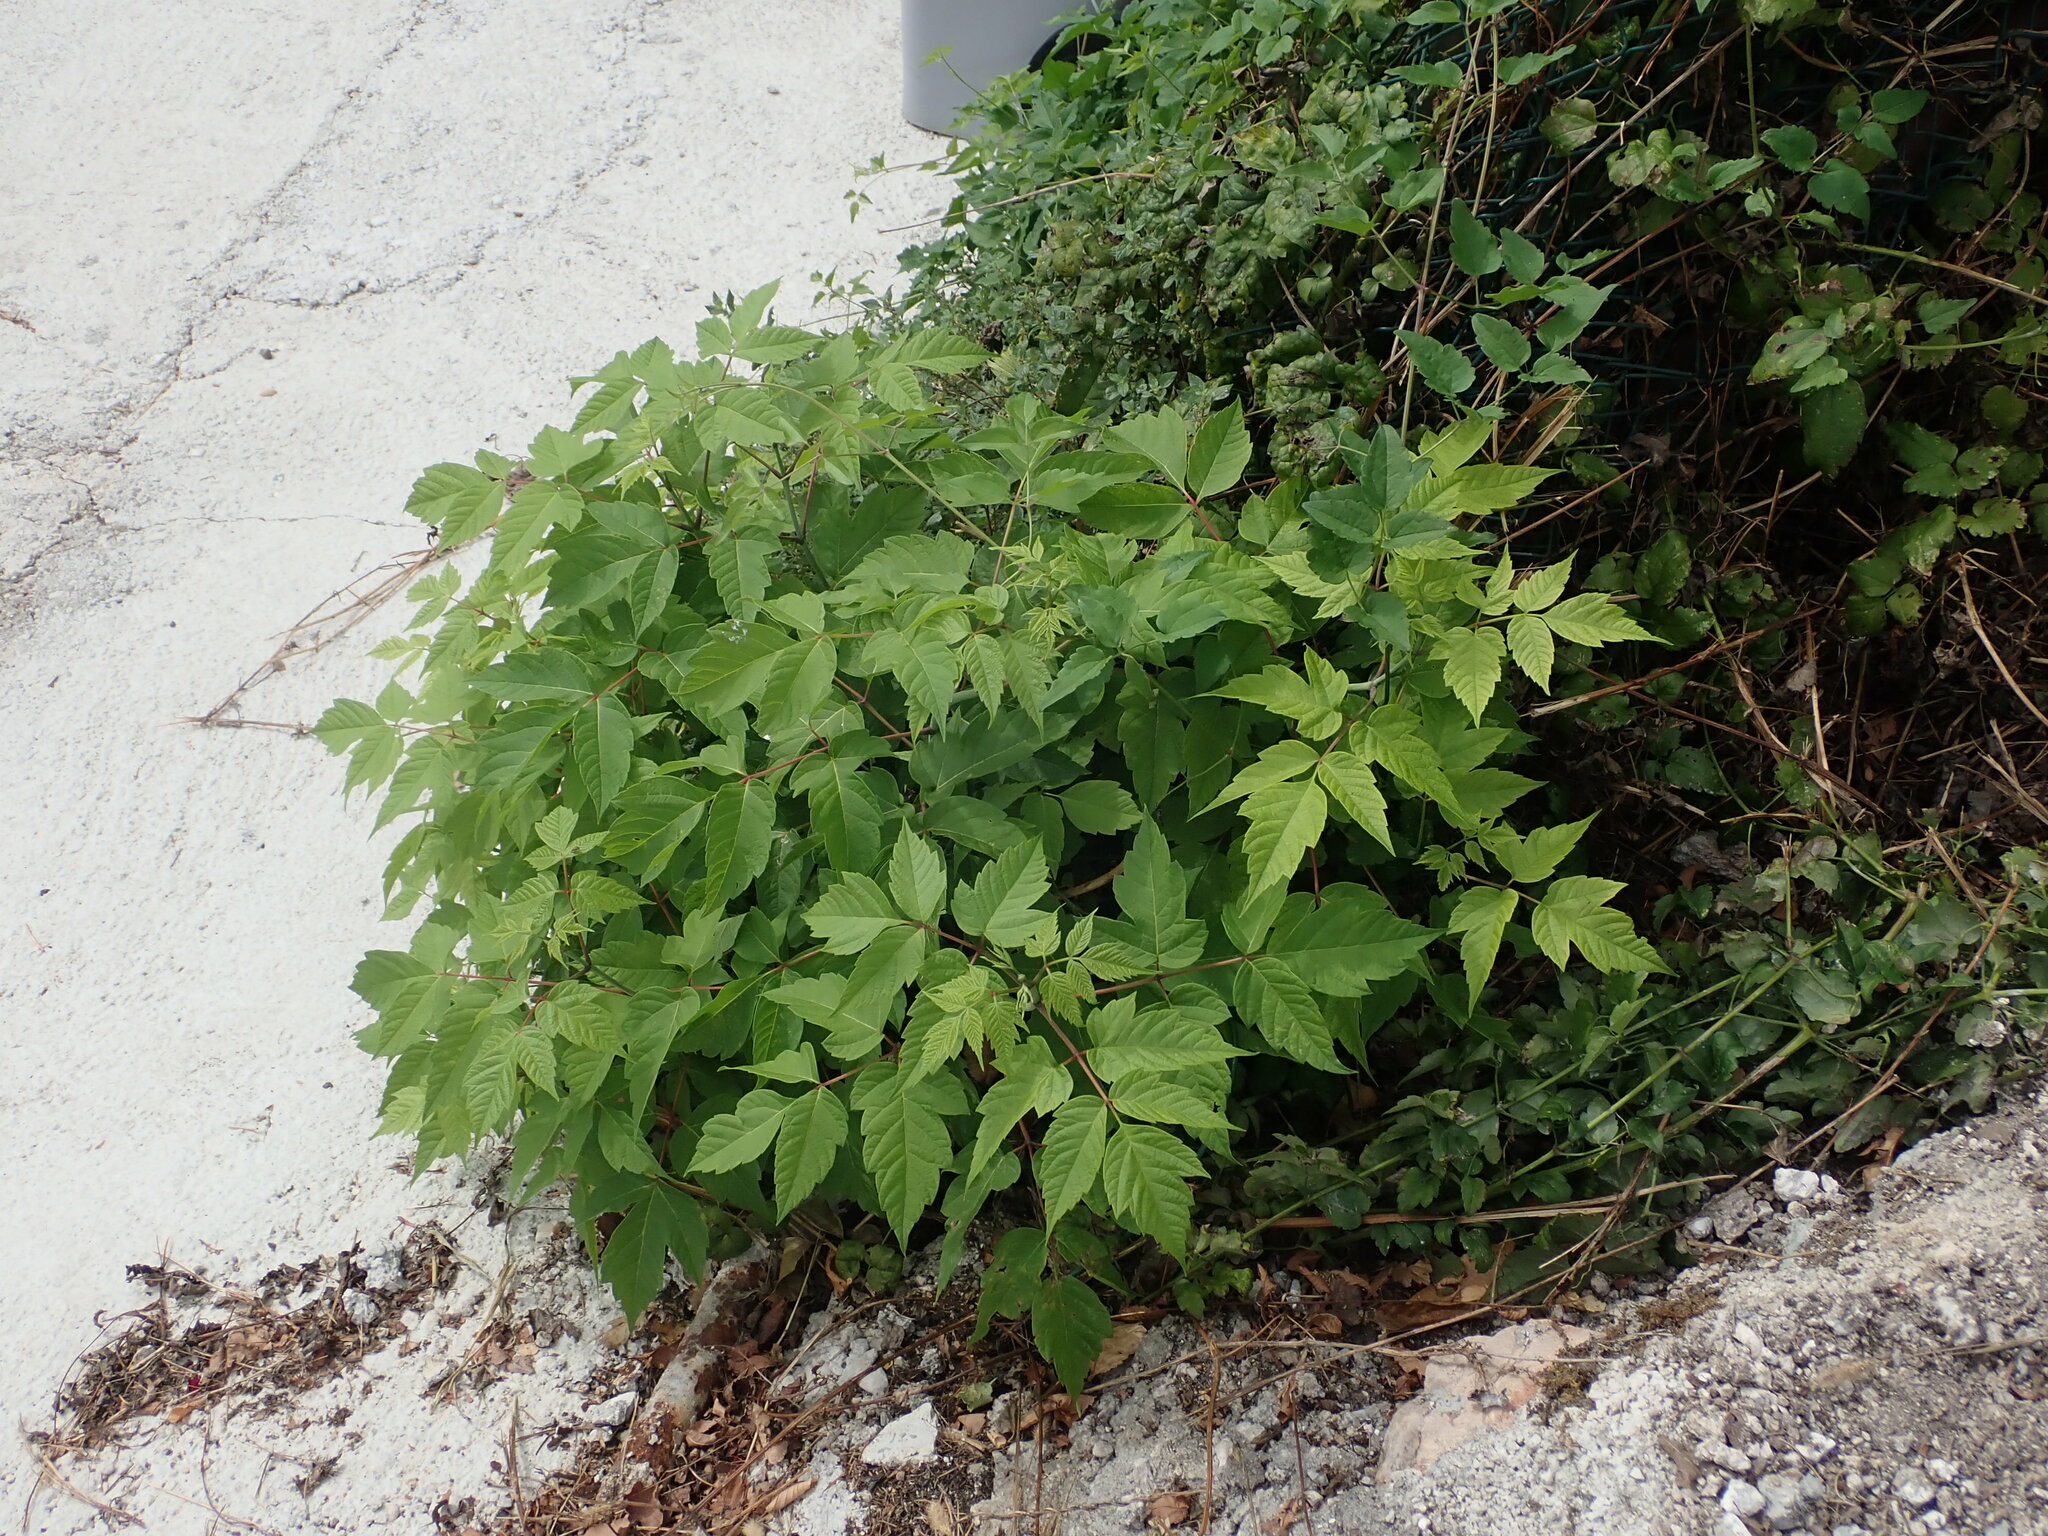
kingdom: Plantae
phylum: Tracheophyta
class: Magnoliopsida
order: Sapindales
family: Sapindaceae
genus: Acer
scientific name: Acer negundo
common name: Ashleaf maple
